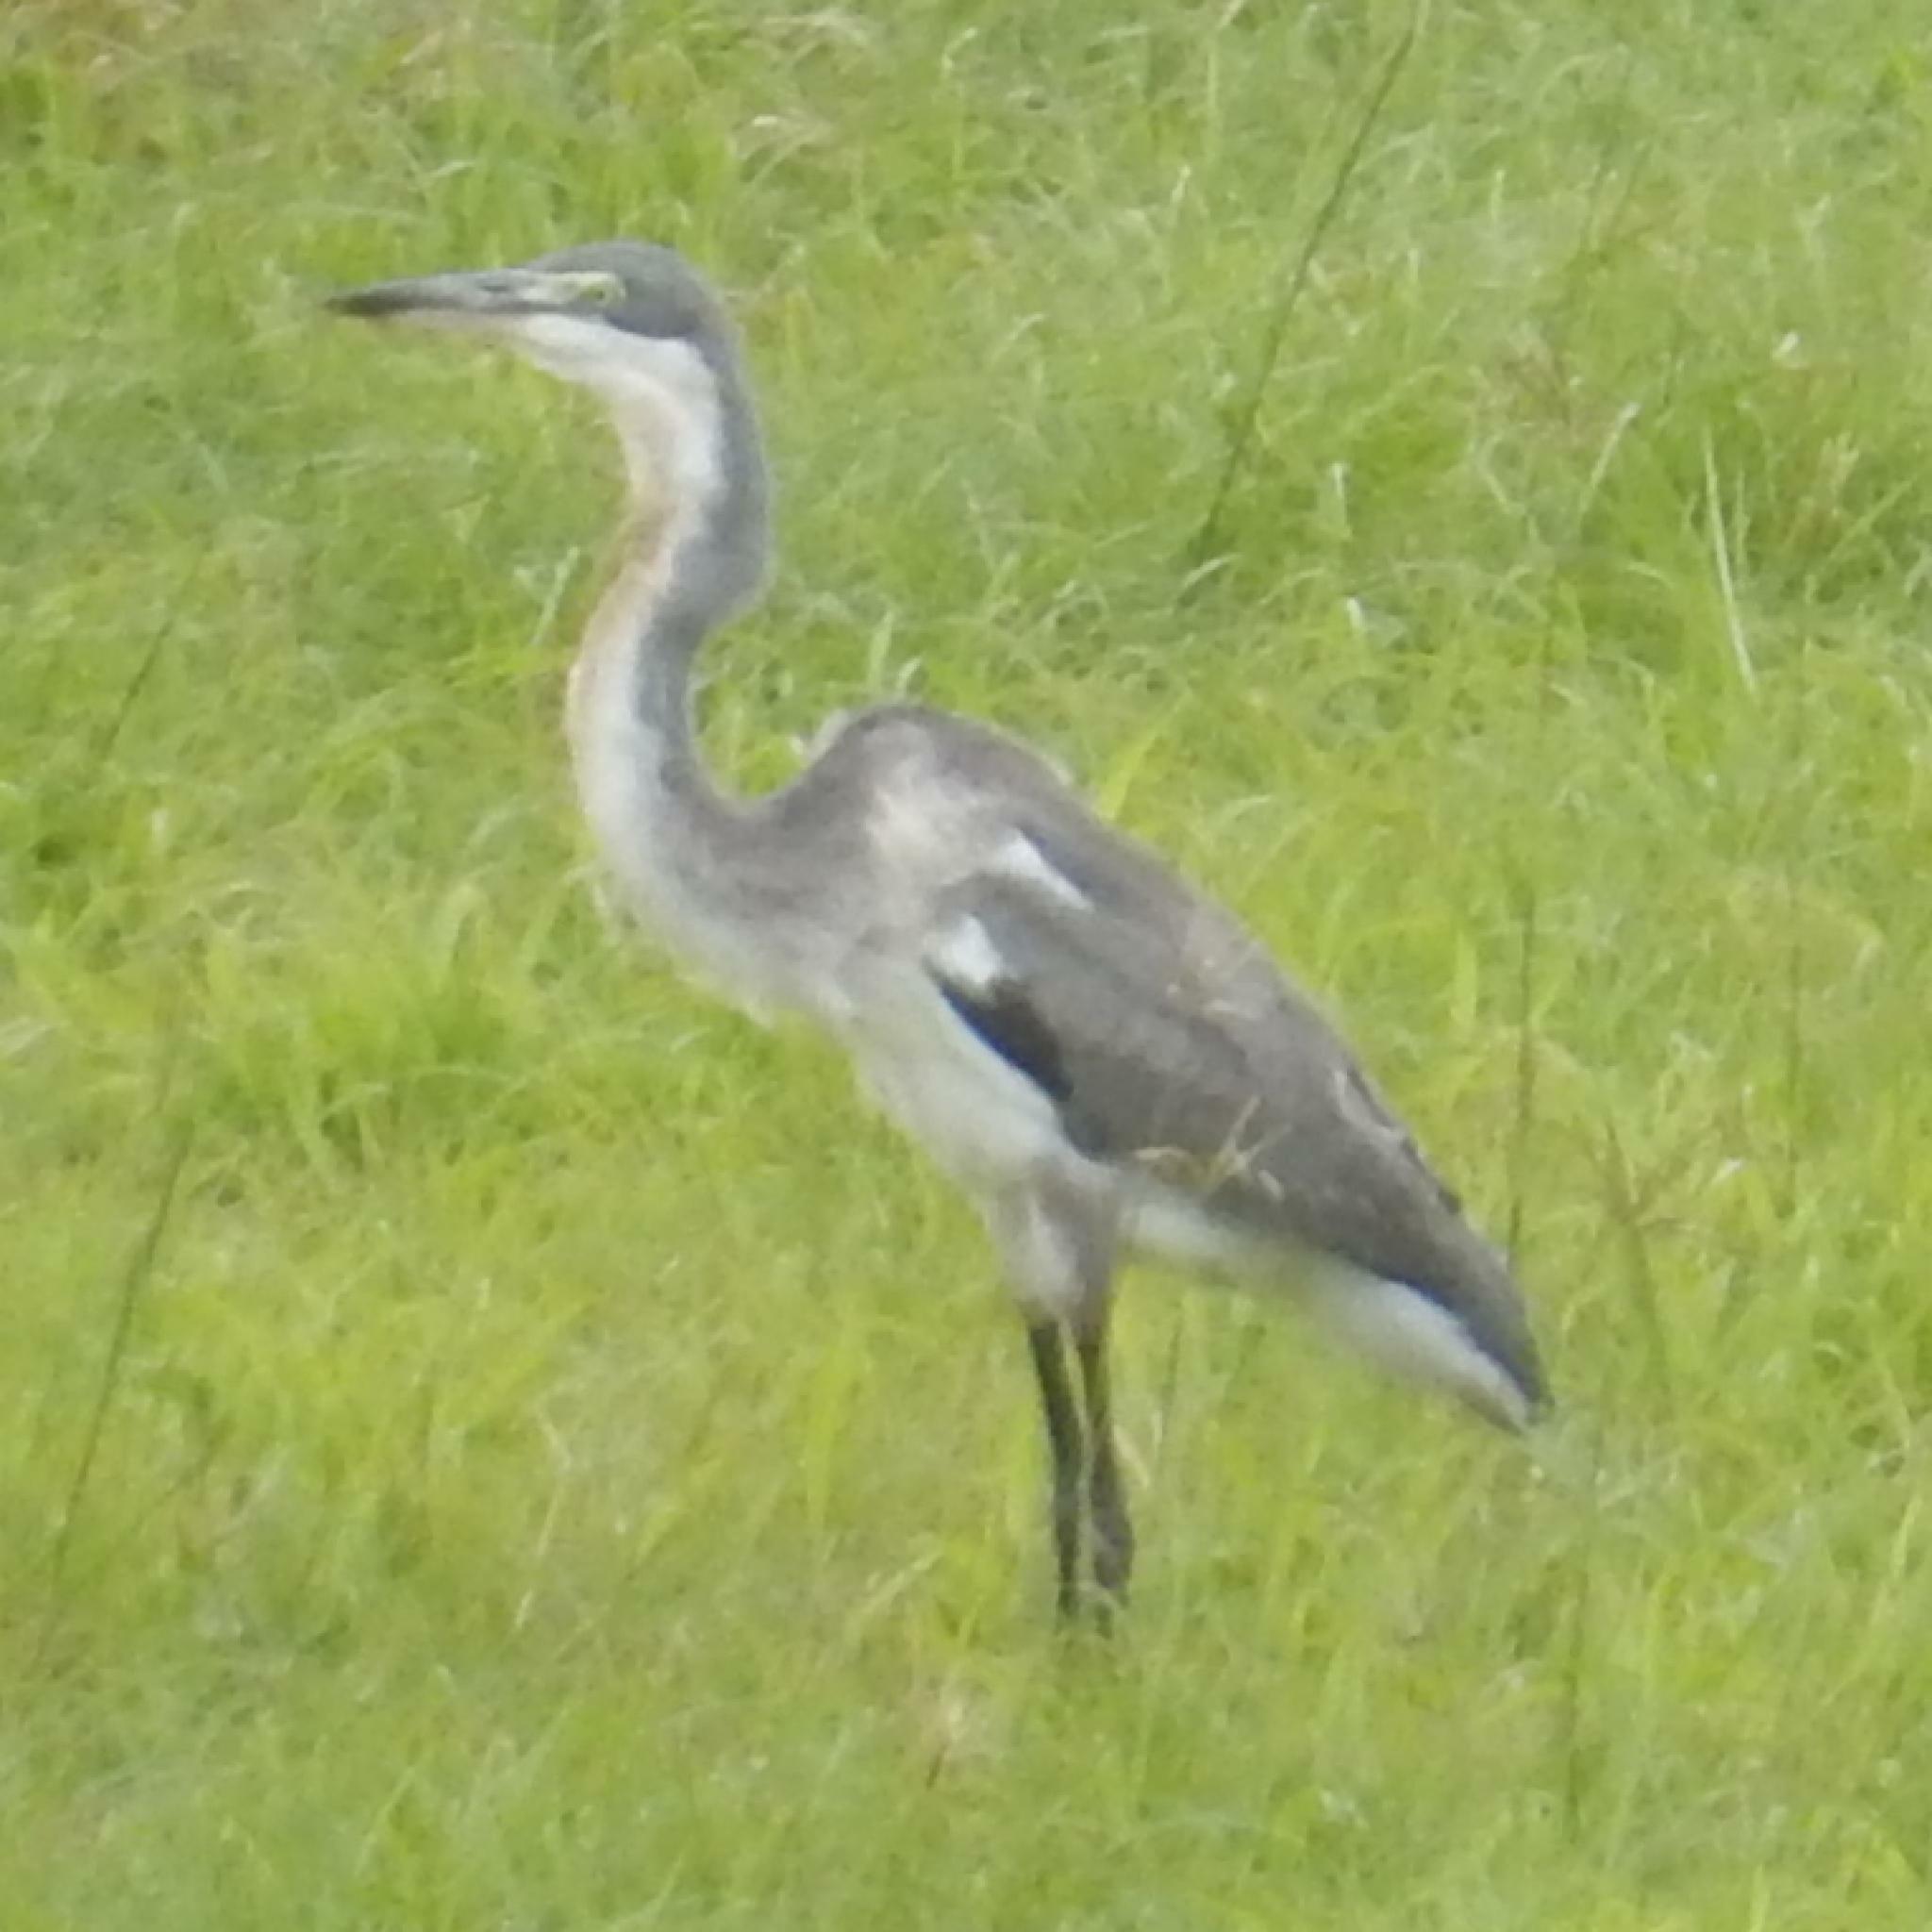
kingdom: Animalia
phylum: Chordata
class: Aves
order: Pelecaniformes
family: Ardeidae
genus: Ardea
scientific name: Ardea melanocephala
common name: Black-headed heron
